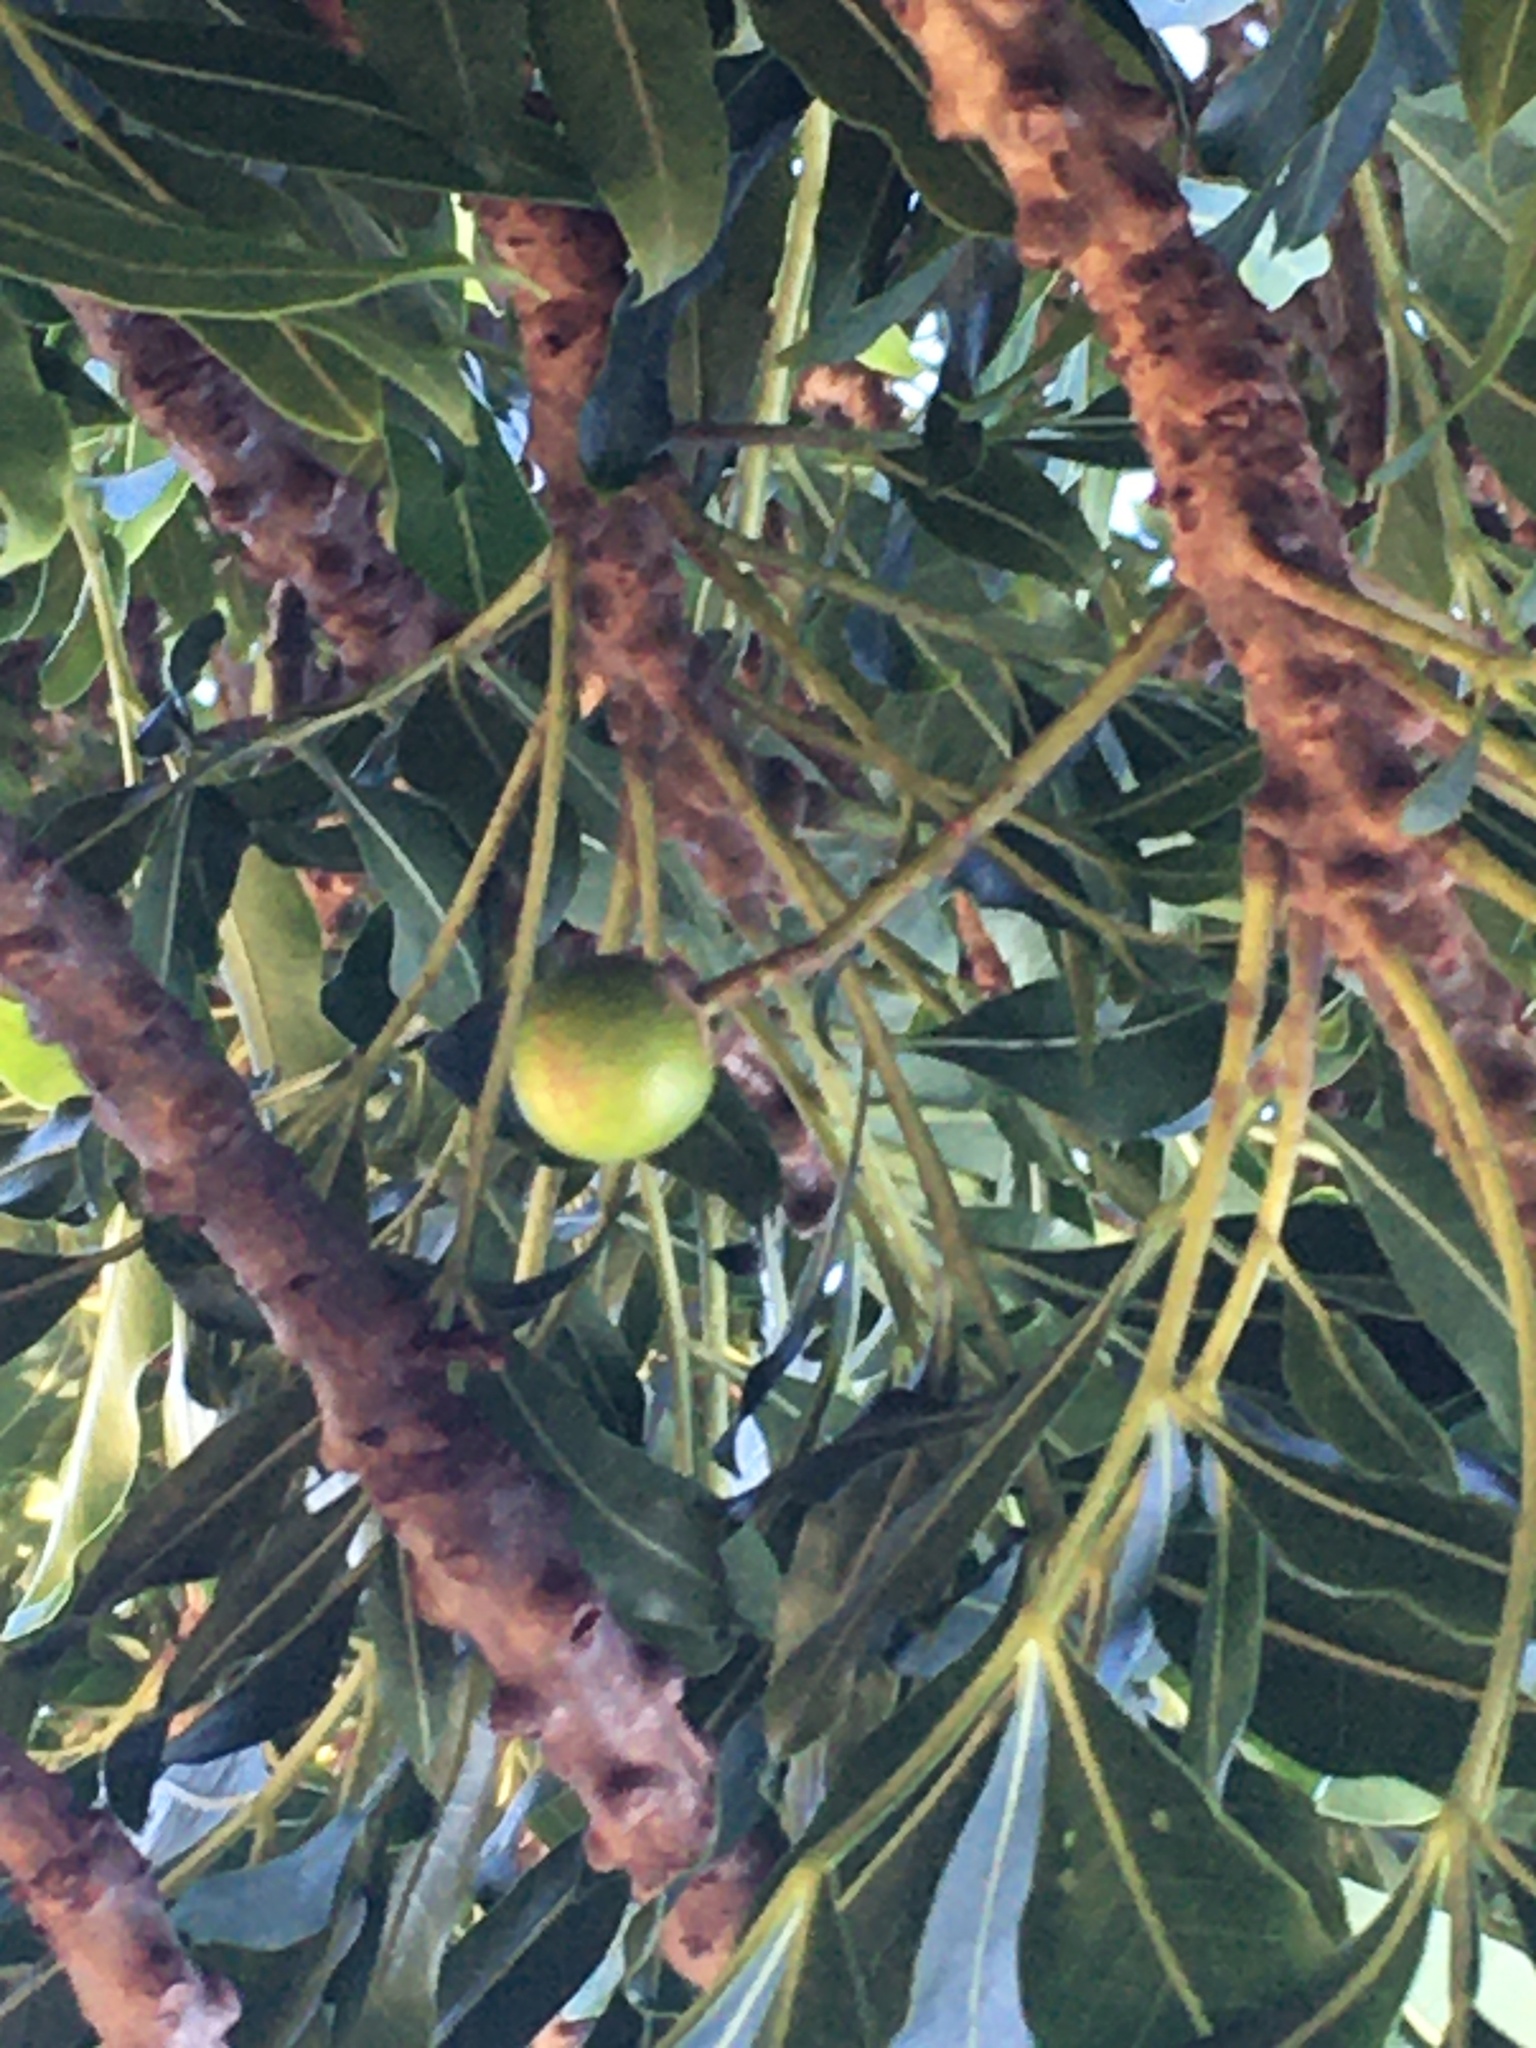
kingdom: Plantae
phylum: Tracheophyta
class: Magnoliopsida
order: Sapindales
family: Meliaceae
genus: Ekebergia
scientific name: Ekebergia capensis
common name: Cape-ash
